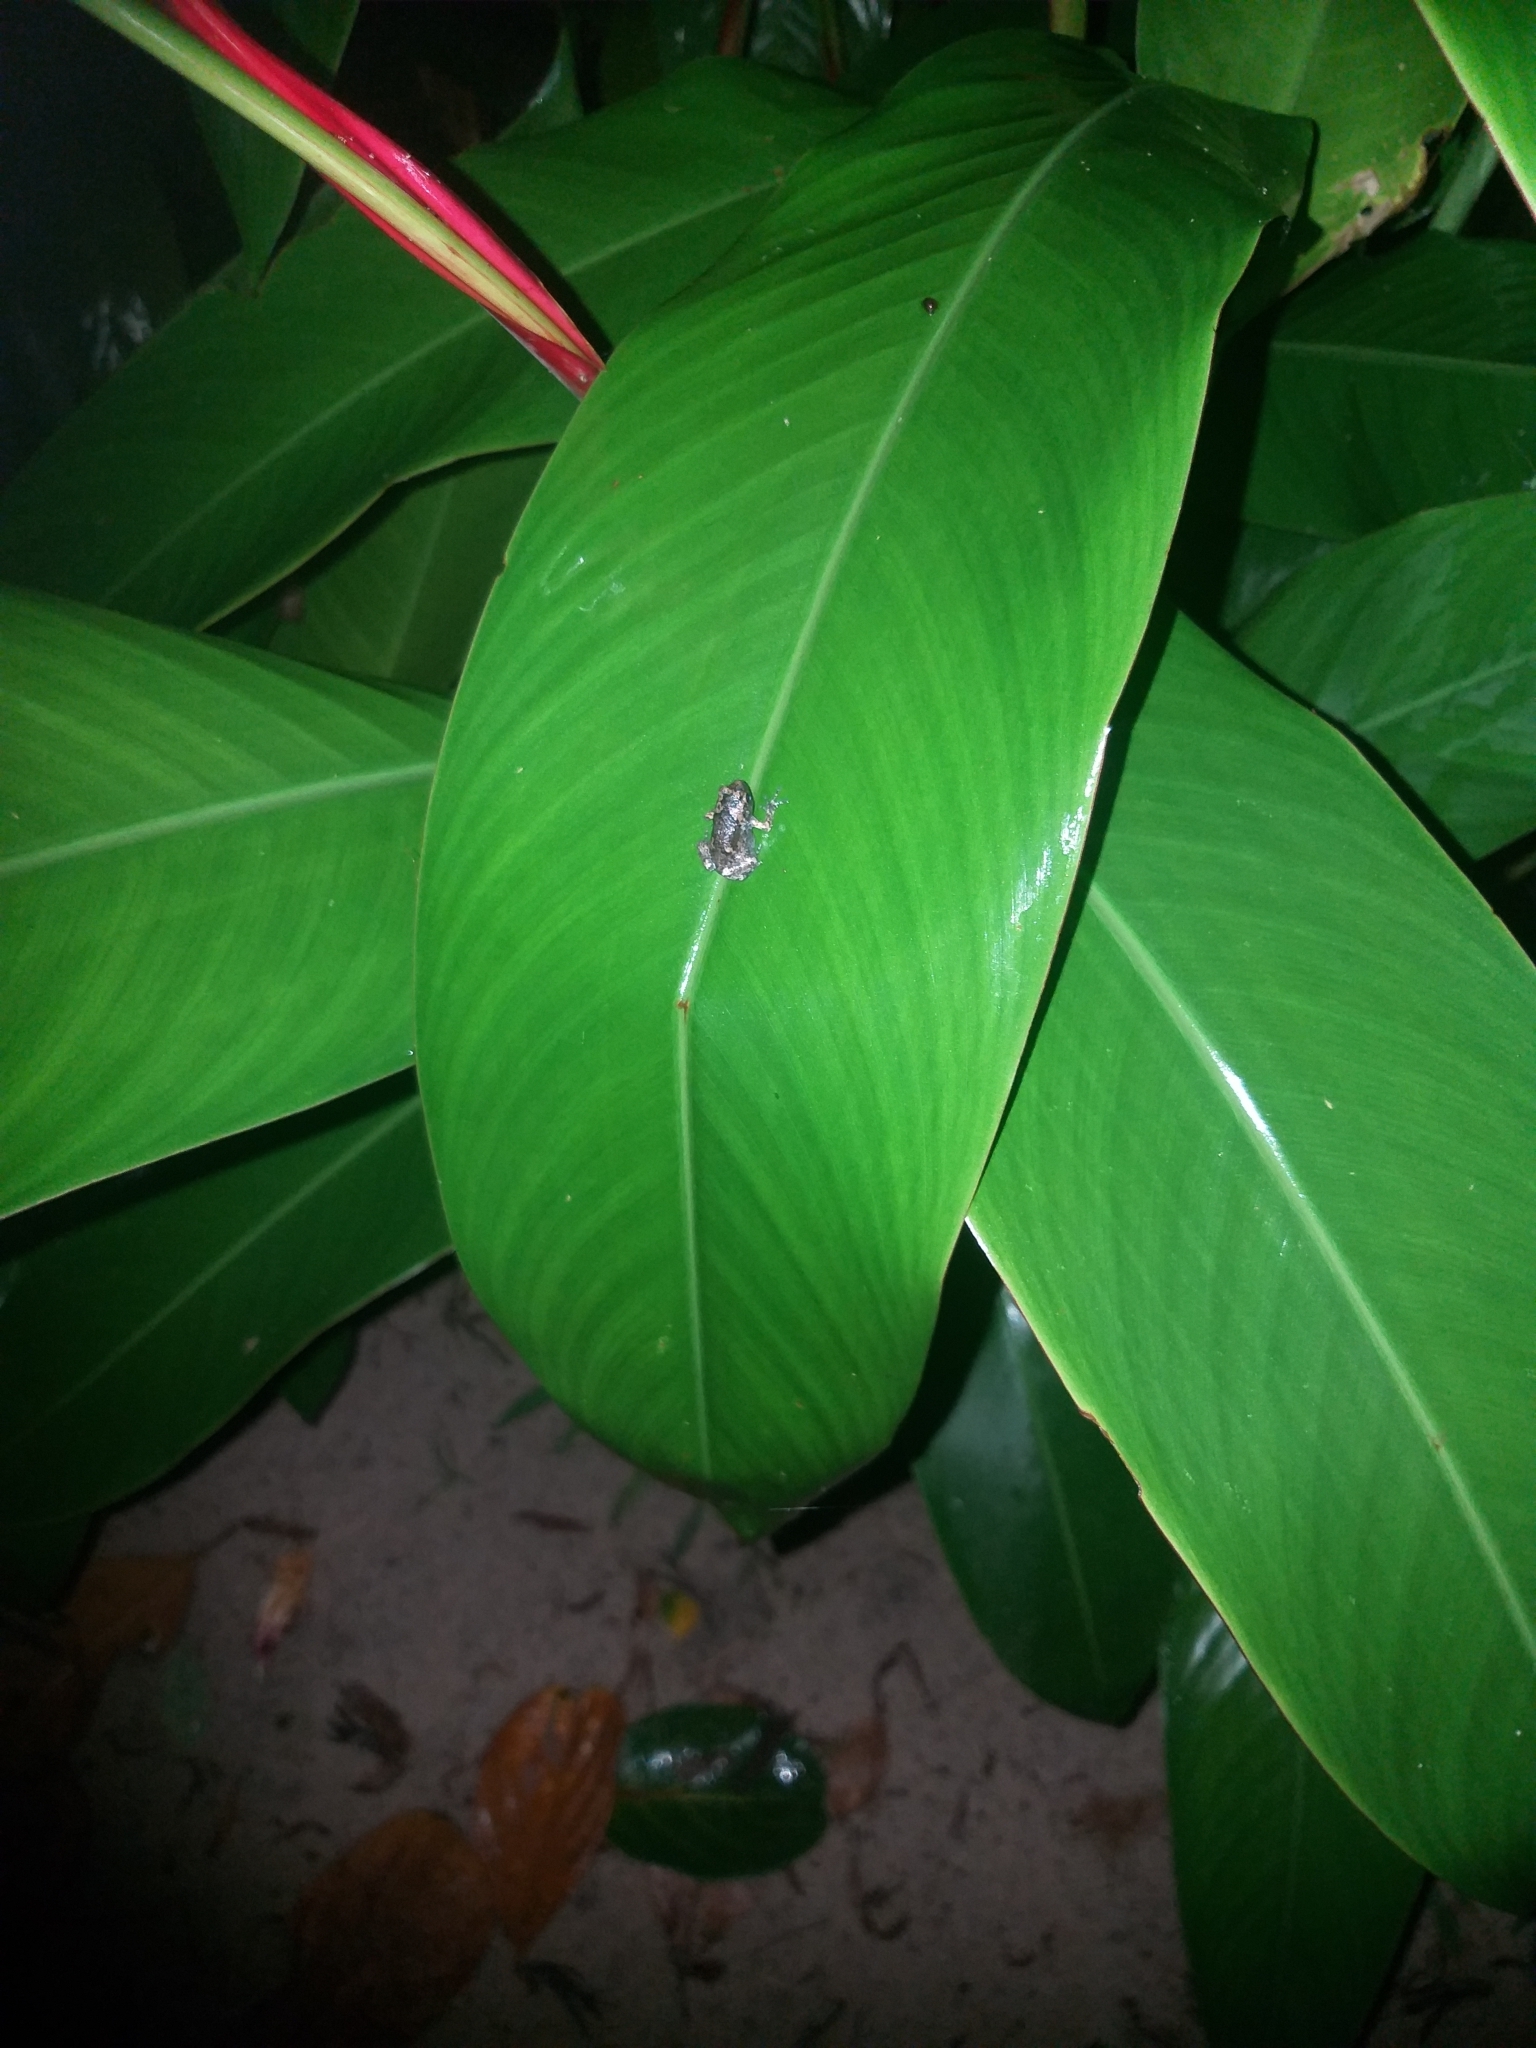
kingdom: Animalia
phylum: Chordata
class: Amphibia
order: Anura
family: Microhylidae
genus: Uperodon
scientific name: Uperodon taprobanicus
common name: Ceylon kaloula
